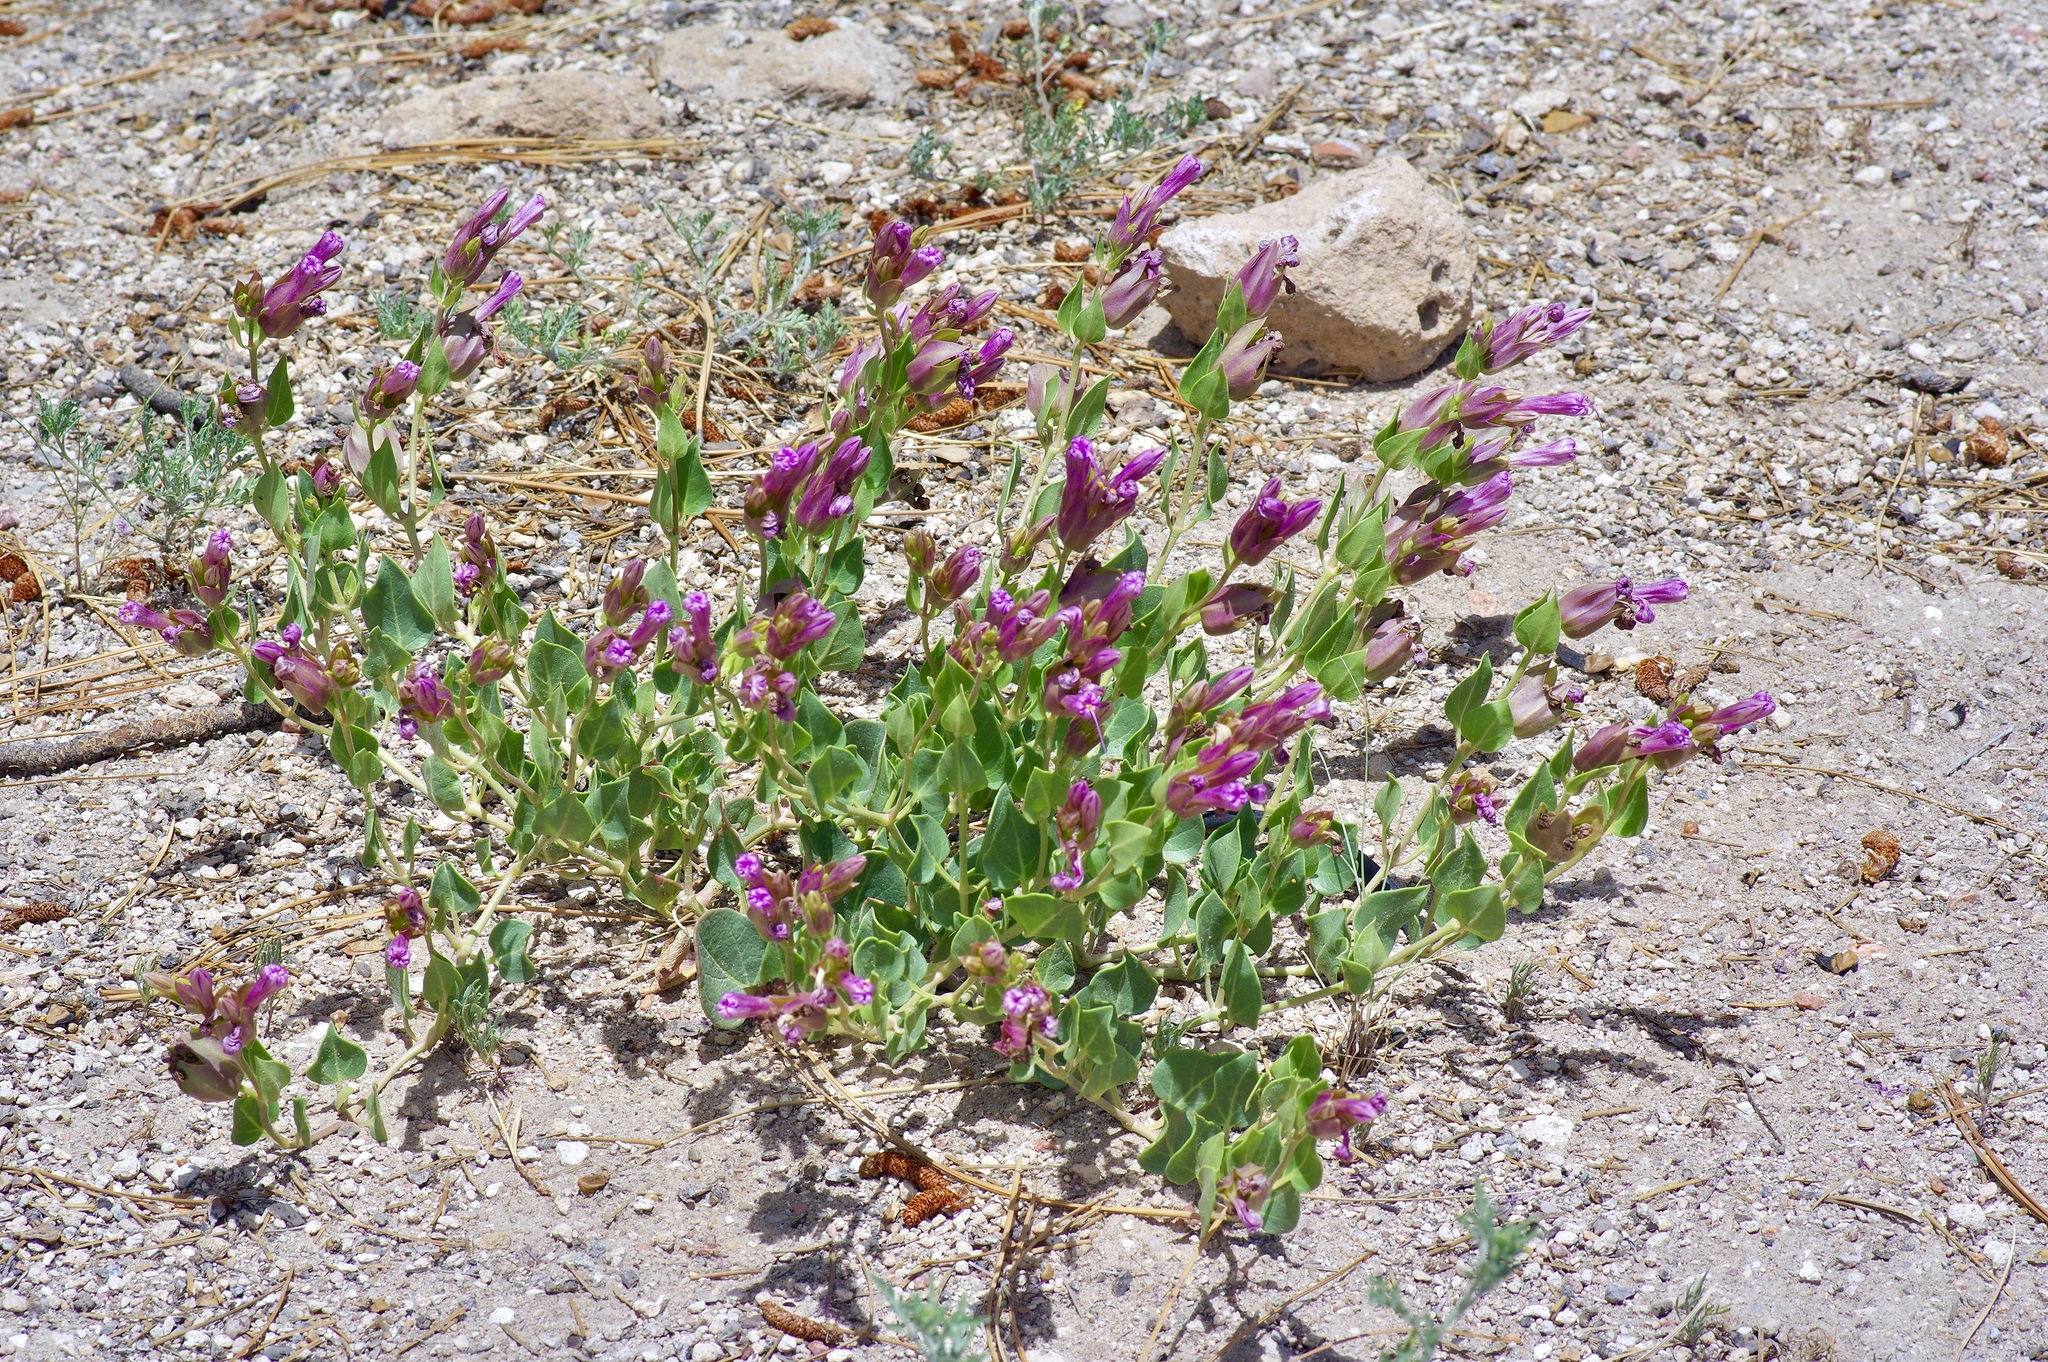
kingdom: Plantae
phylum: Tracheophyta
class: Magnoliopsida
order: Caryophyllales
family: Nyctaginaceae
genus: Mirabilis
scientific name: Mirabilis multiflora
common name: Froebel's four-o'clock
